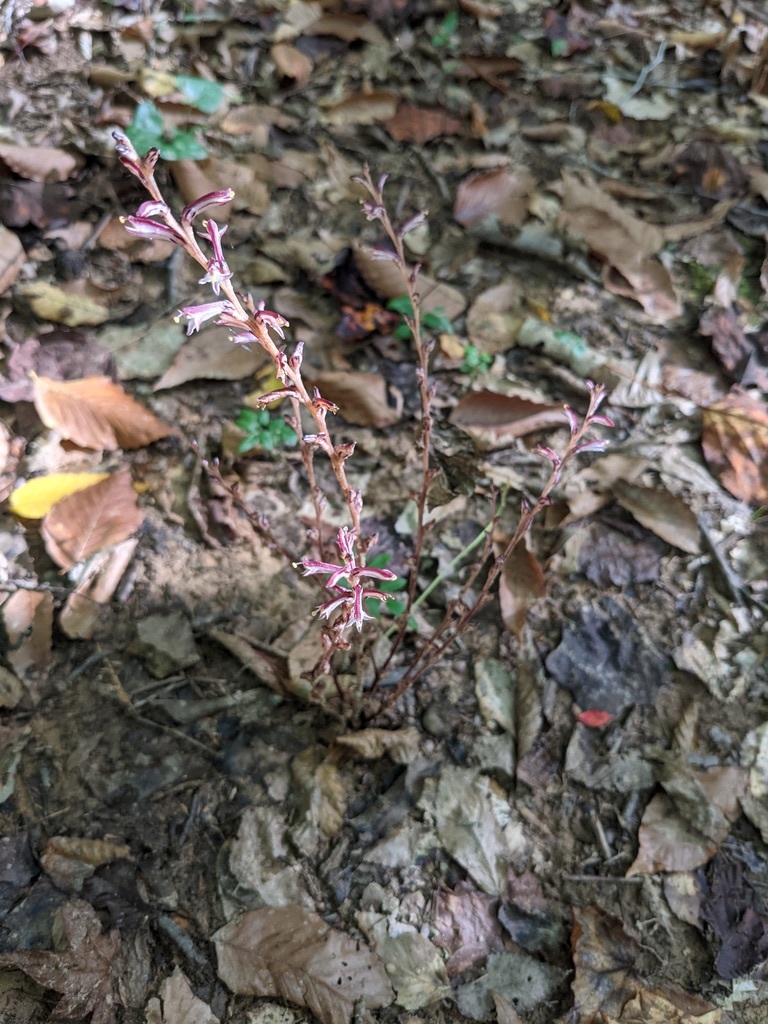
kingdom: Plantae
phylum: Tracheophyta
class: Magnoliopsida
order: Lamiales
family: Orobanchaceae
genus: Epifagus
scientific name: Epifagus virginiana
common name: Beechdrops
